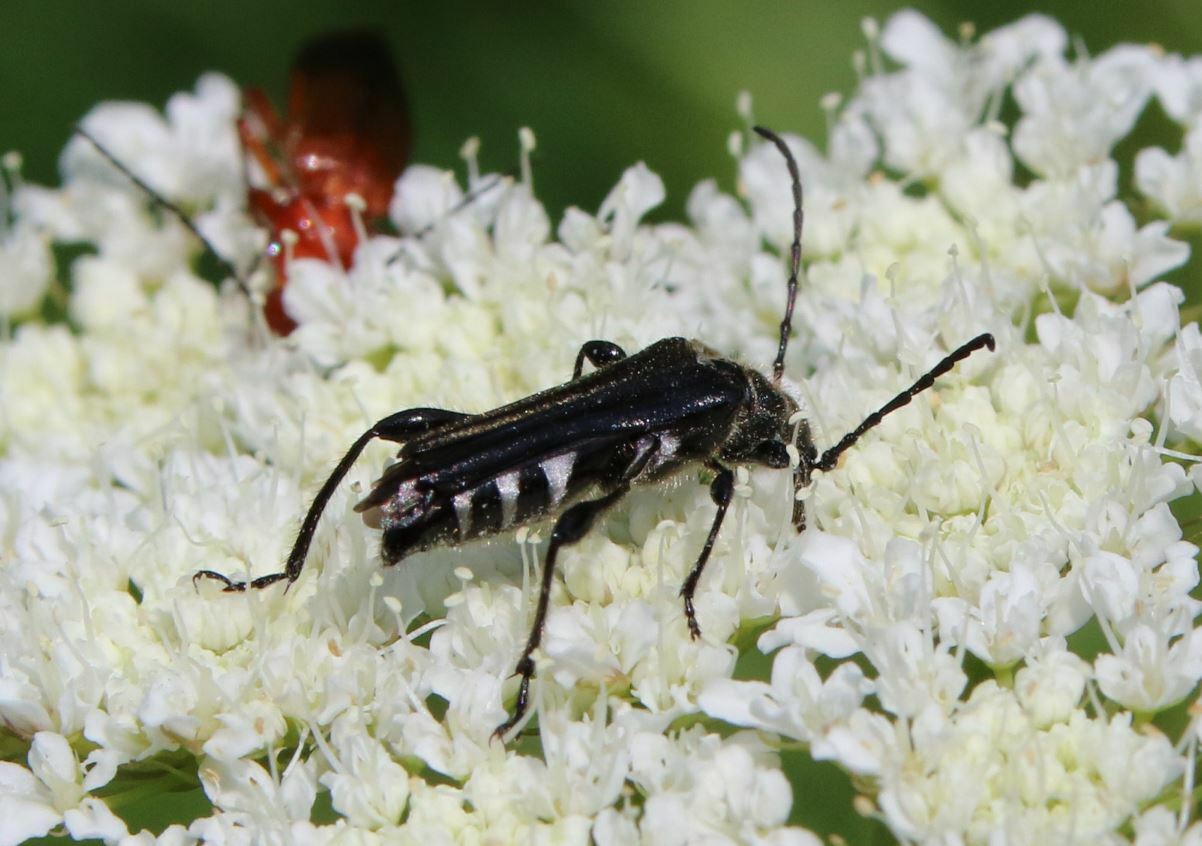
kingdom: Animalia
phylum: Arthropoda
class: Insecta
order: Coleoptera
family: Cerambycidae
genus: Stenopterus
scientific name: Stenopterus ater
